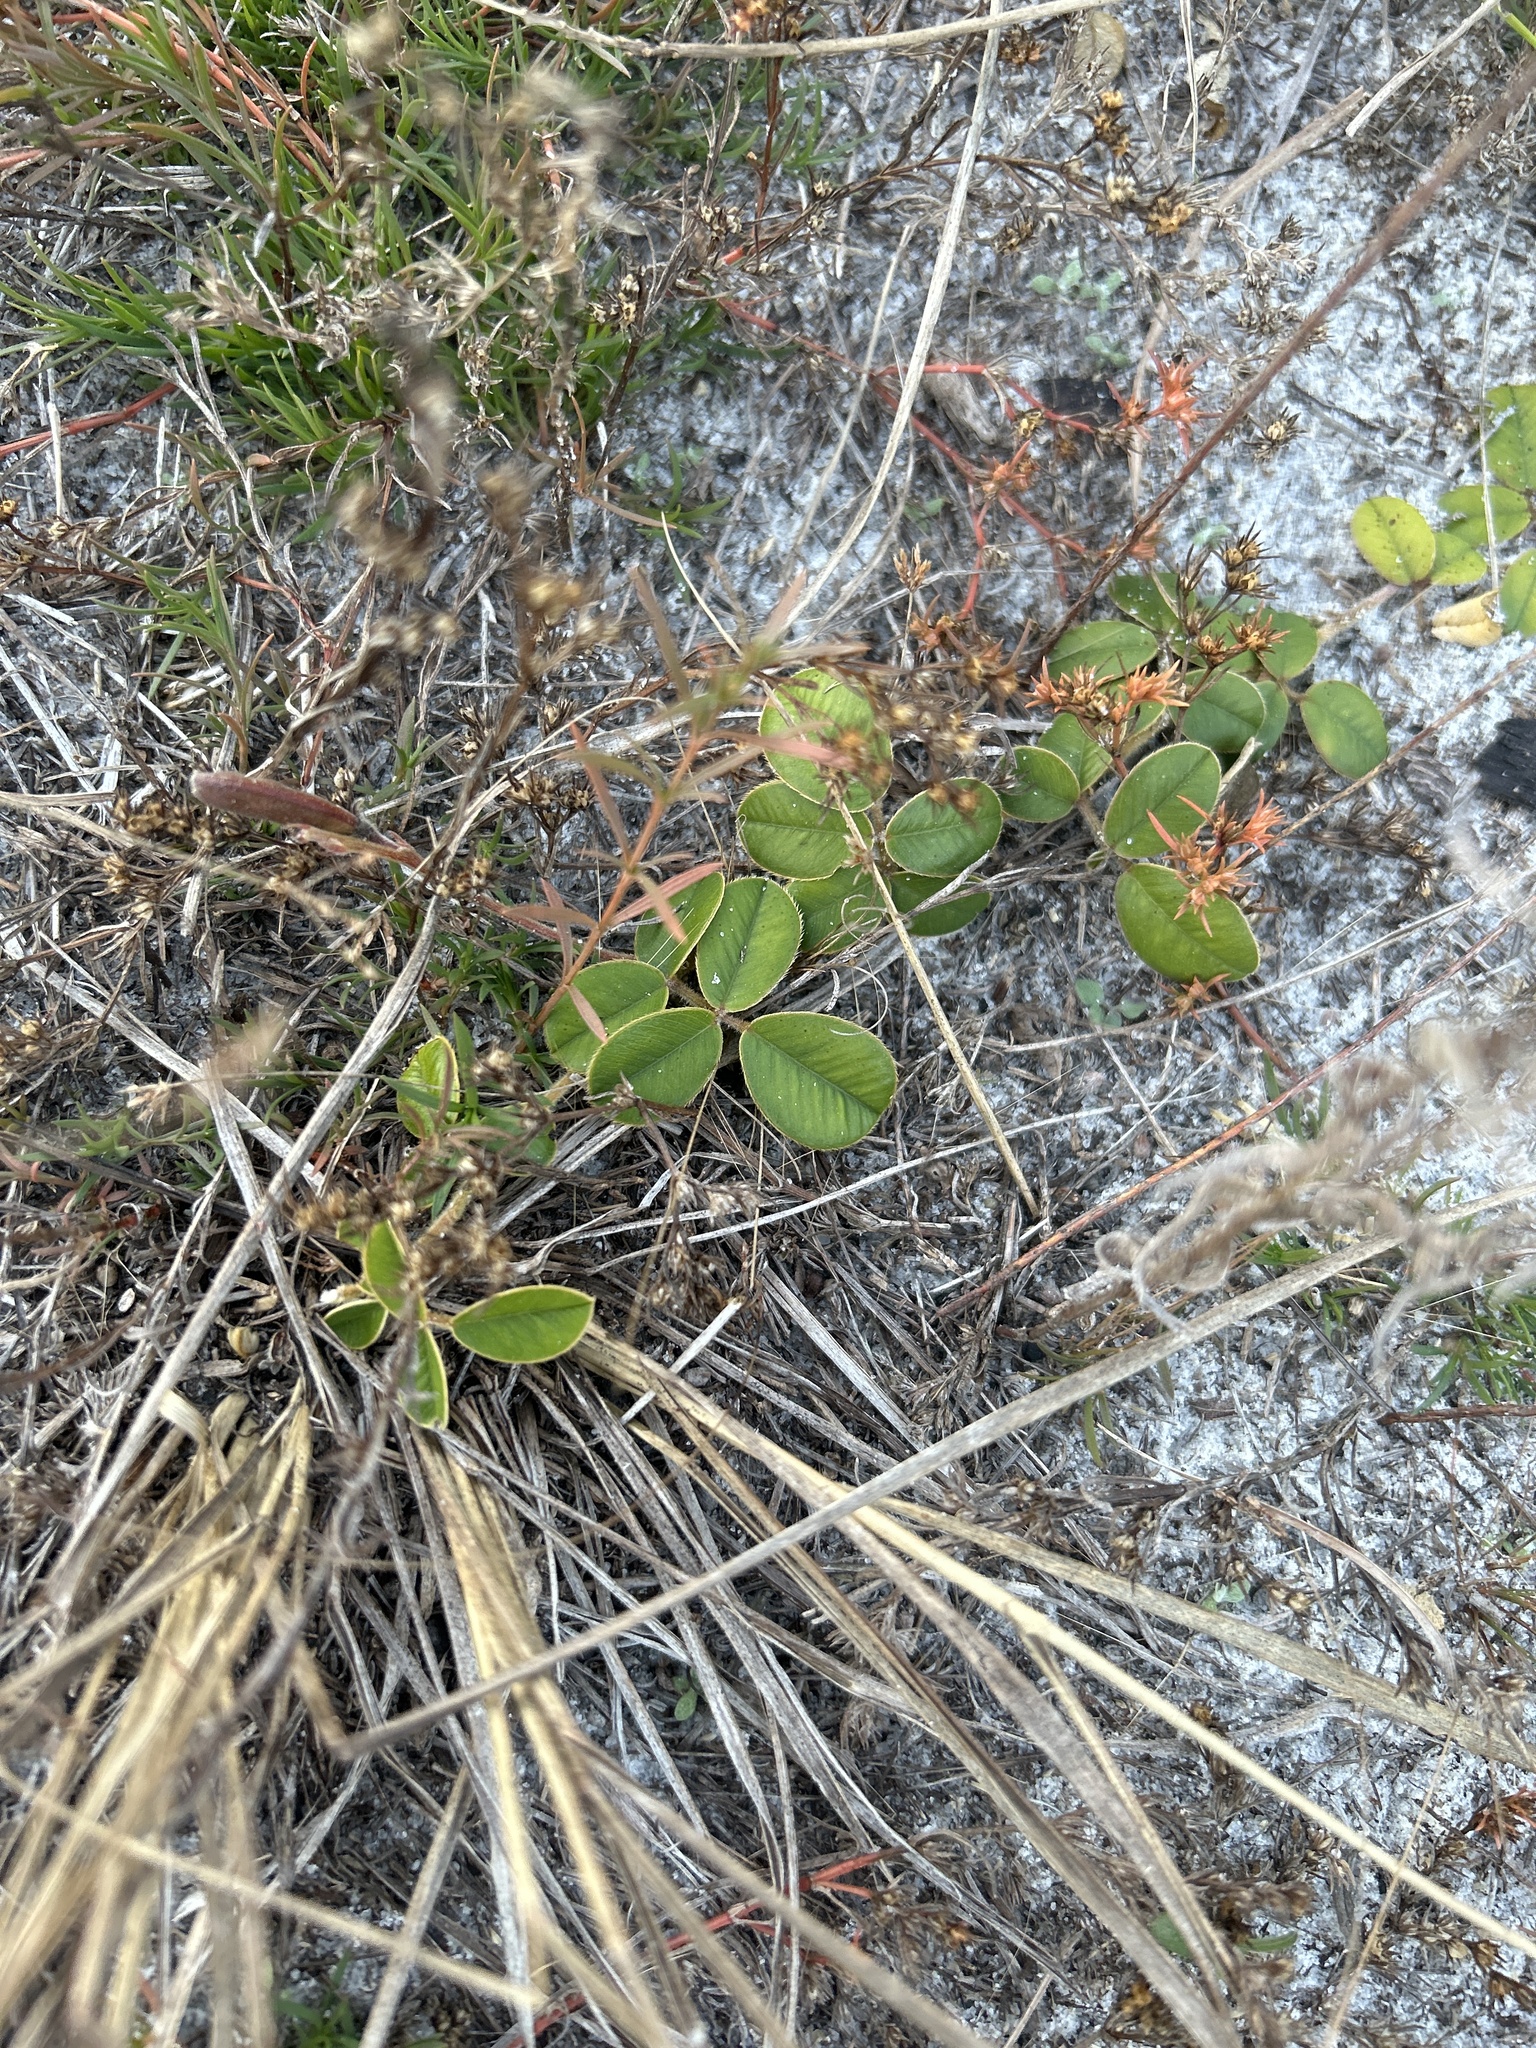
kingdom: Plantae
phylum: Tracheophyta
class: Magnoliopsida
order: Fabales
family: Fabaceae
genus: Tephrosia
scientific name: Tephrosia chrysophylla
